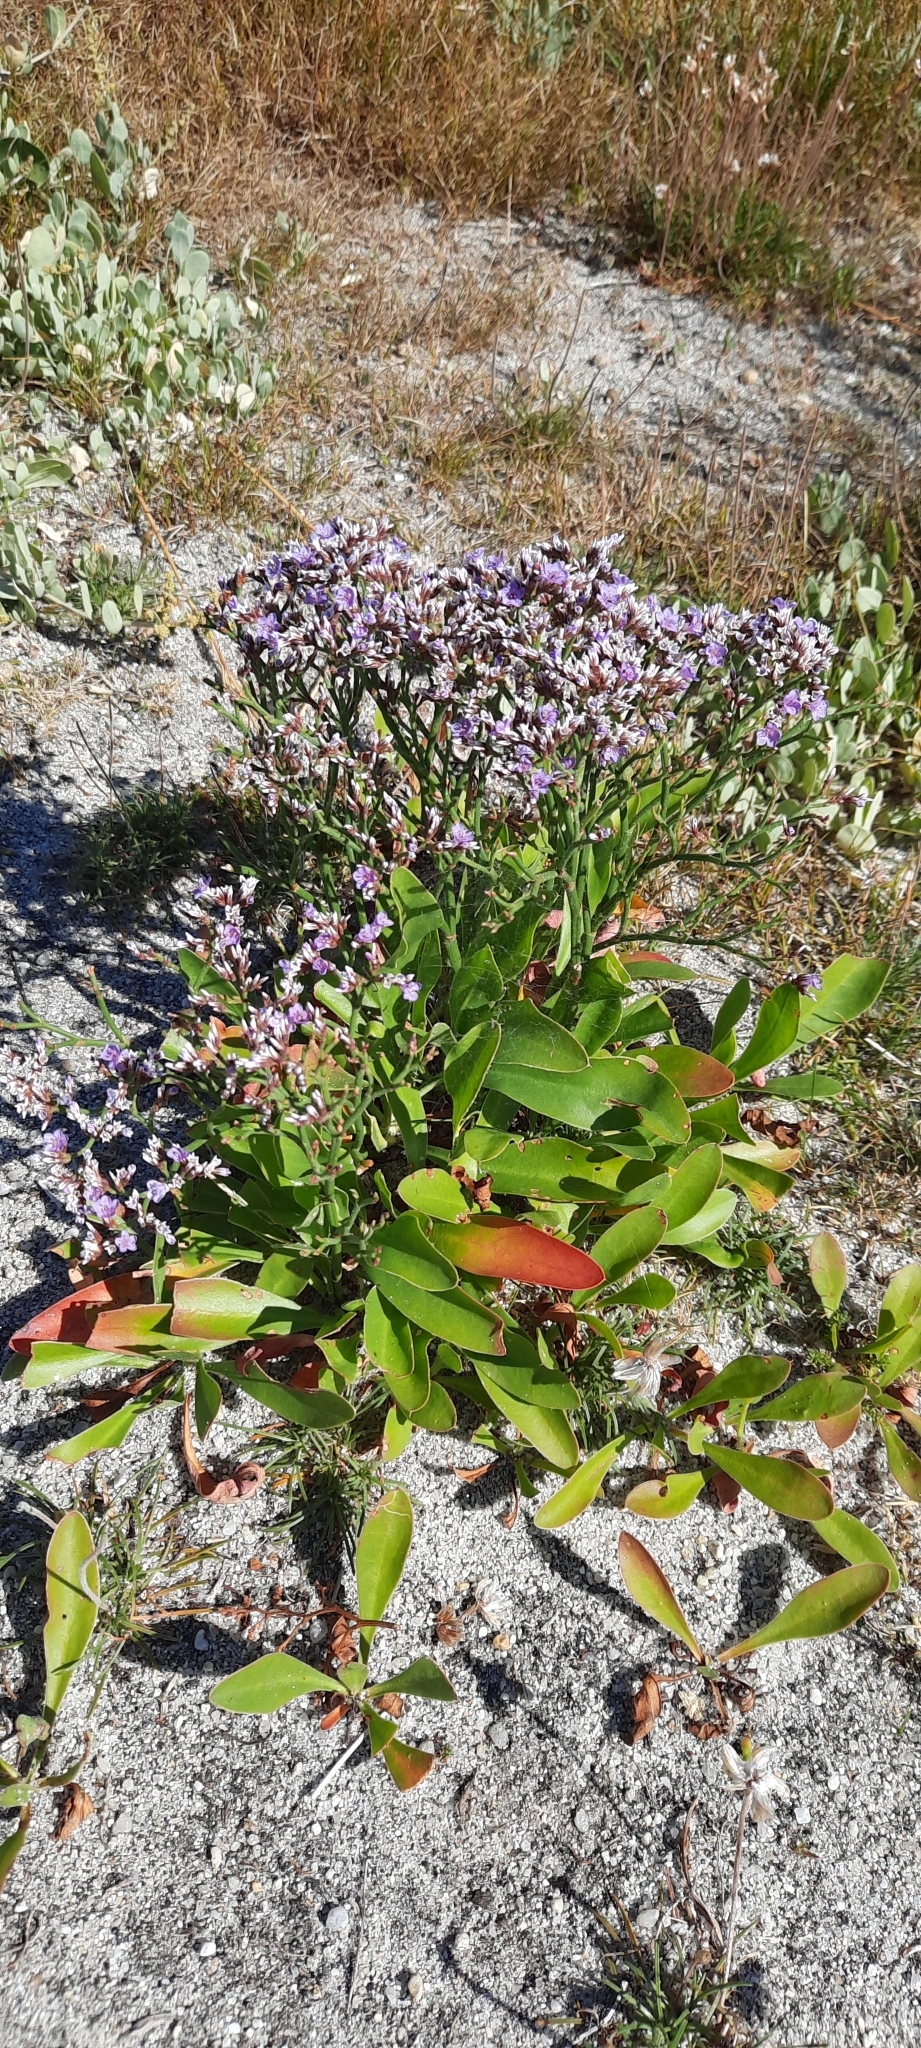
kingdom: Plantae
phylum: Tracheophyta
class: Magnoliopsida
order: Caryophyllales
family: Plumbaginaceae
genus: Limonium
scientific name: Limonium vulgare
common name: Common sea-lavender
